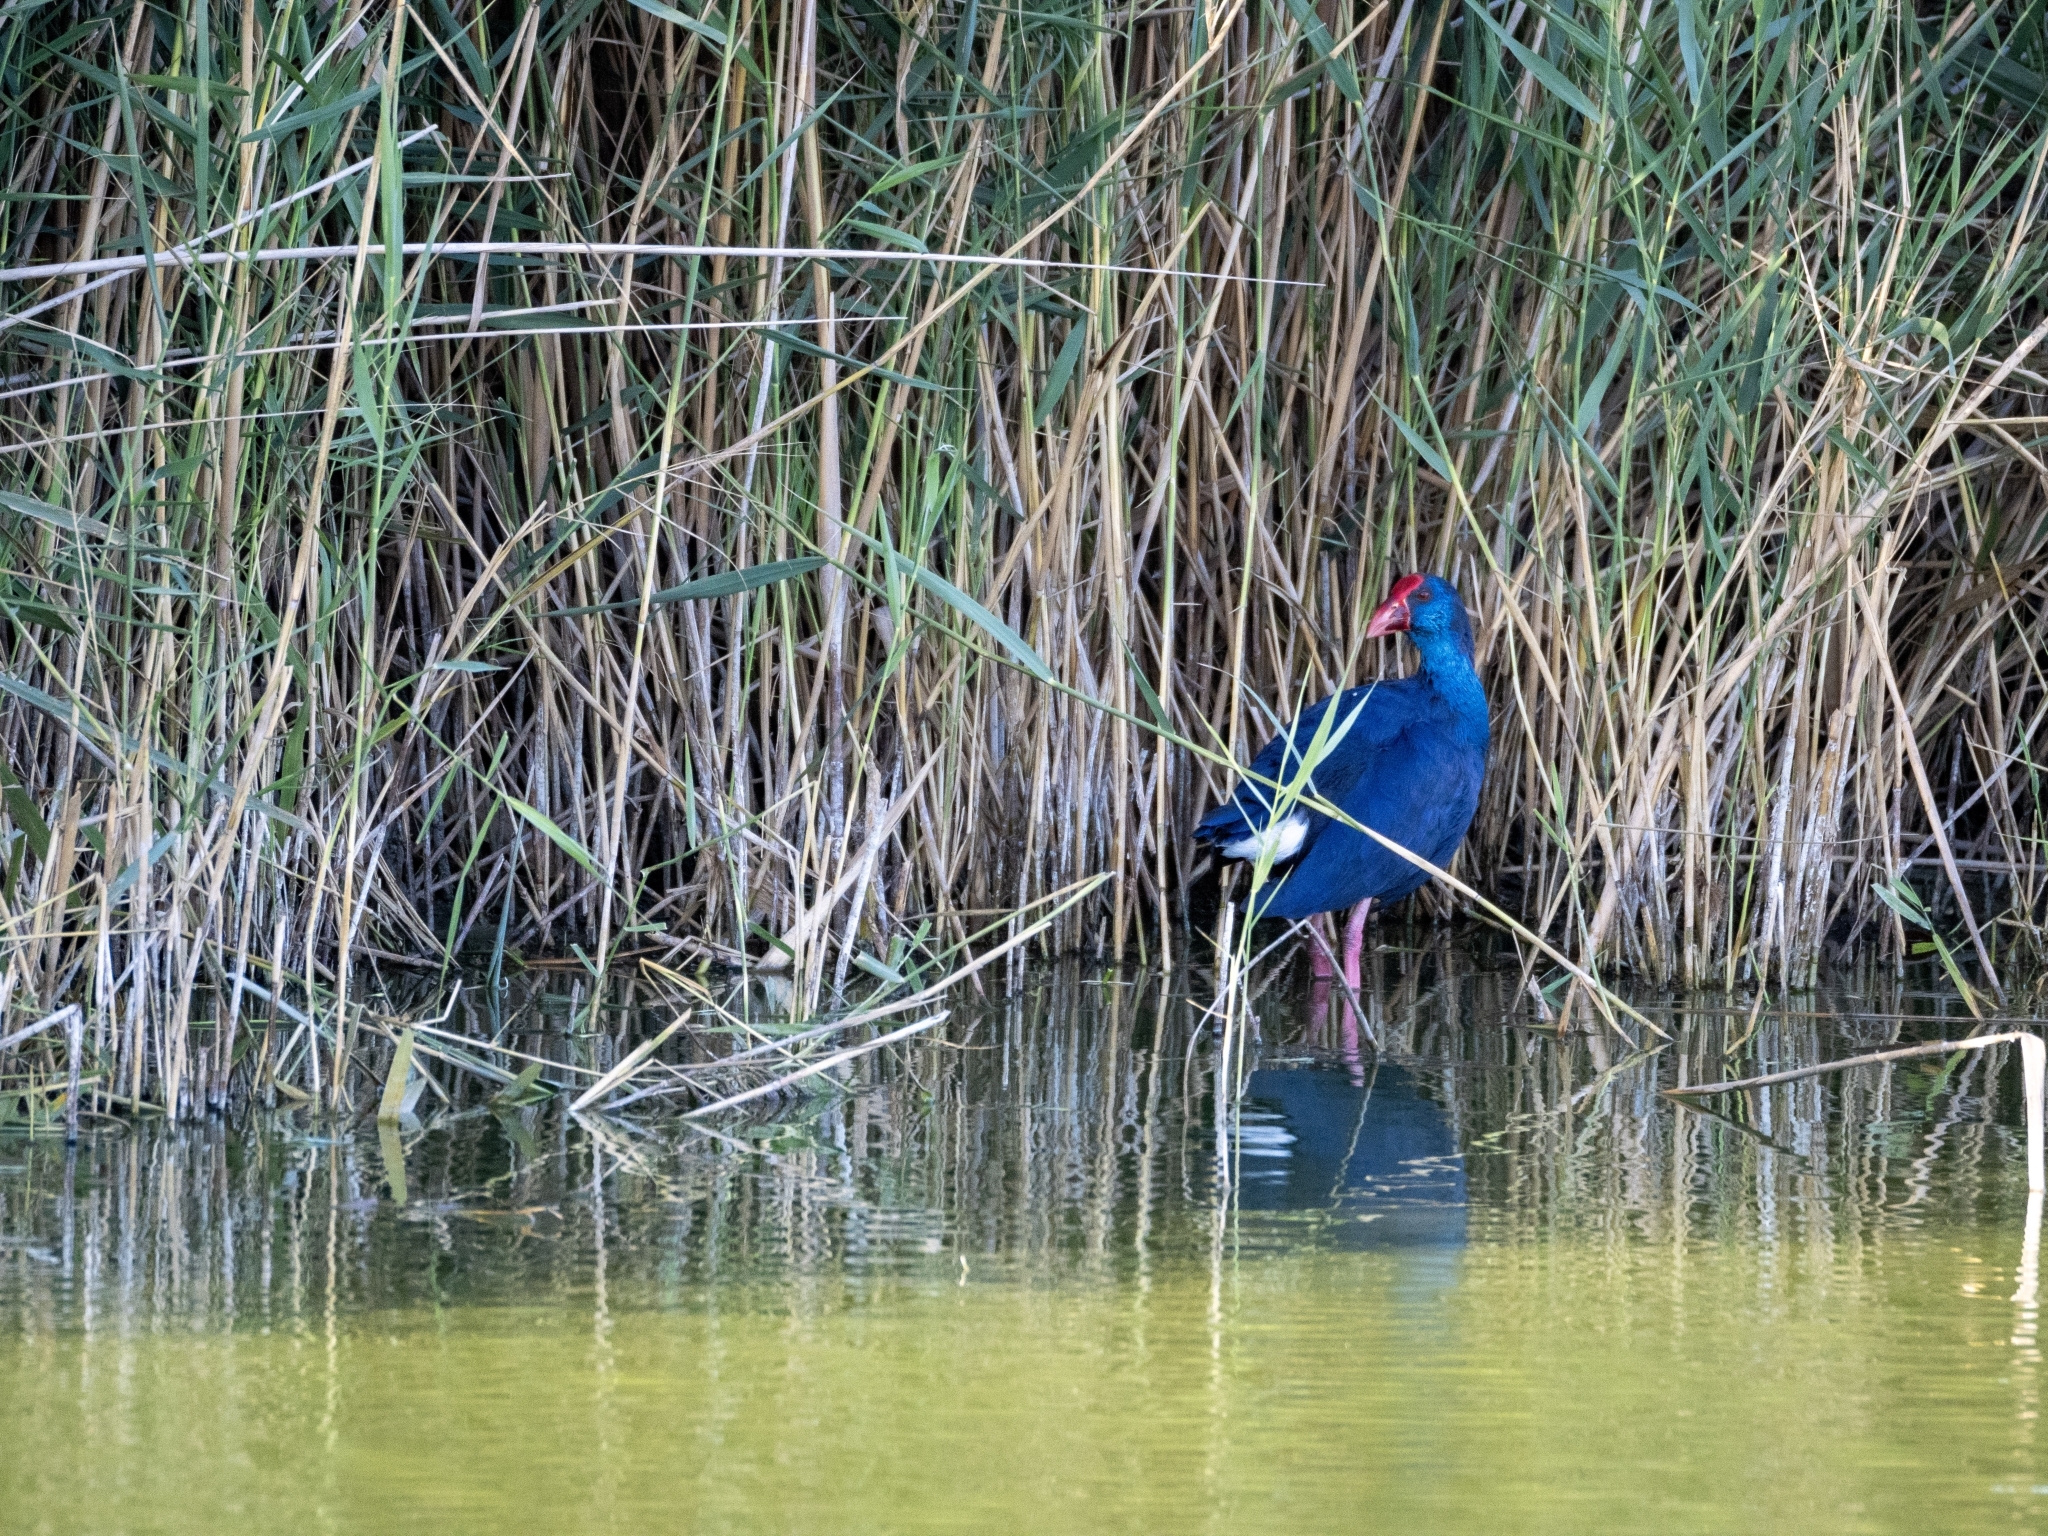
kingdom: Animalia
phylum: Chordata
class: Aves
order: Gruiformes
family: Rallidae
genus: Porphyrio
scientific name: Porphyrio porphyrio
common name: Purple swamphen
